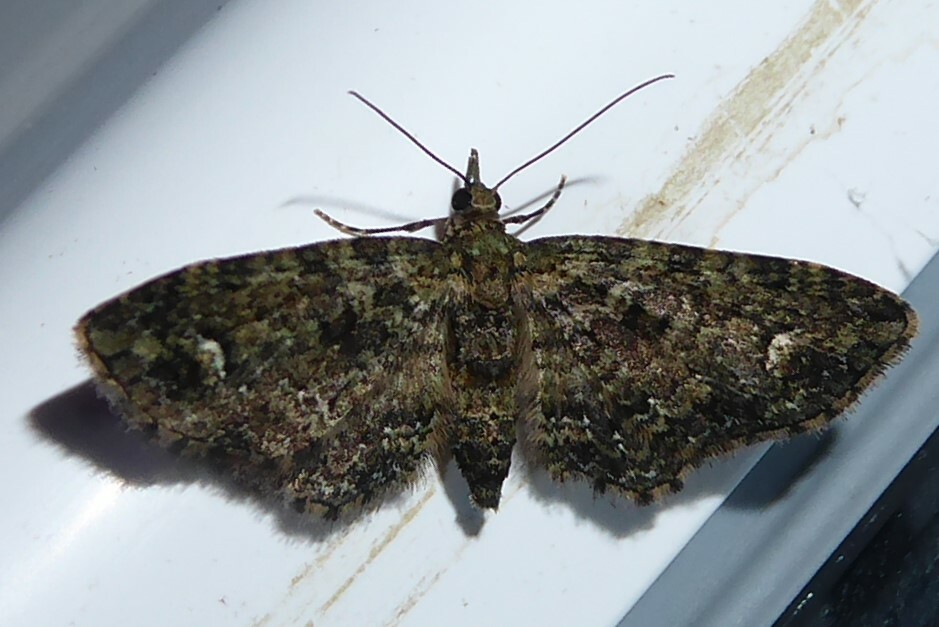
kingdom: Animalia
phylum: Arthropoda
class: Insecta
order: Lepidoptera
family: Geometridae
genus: Pasiphilodes
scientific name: Pasiphilodes testulata
